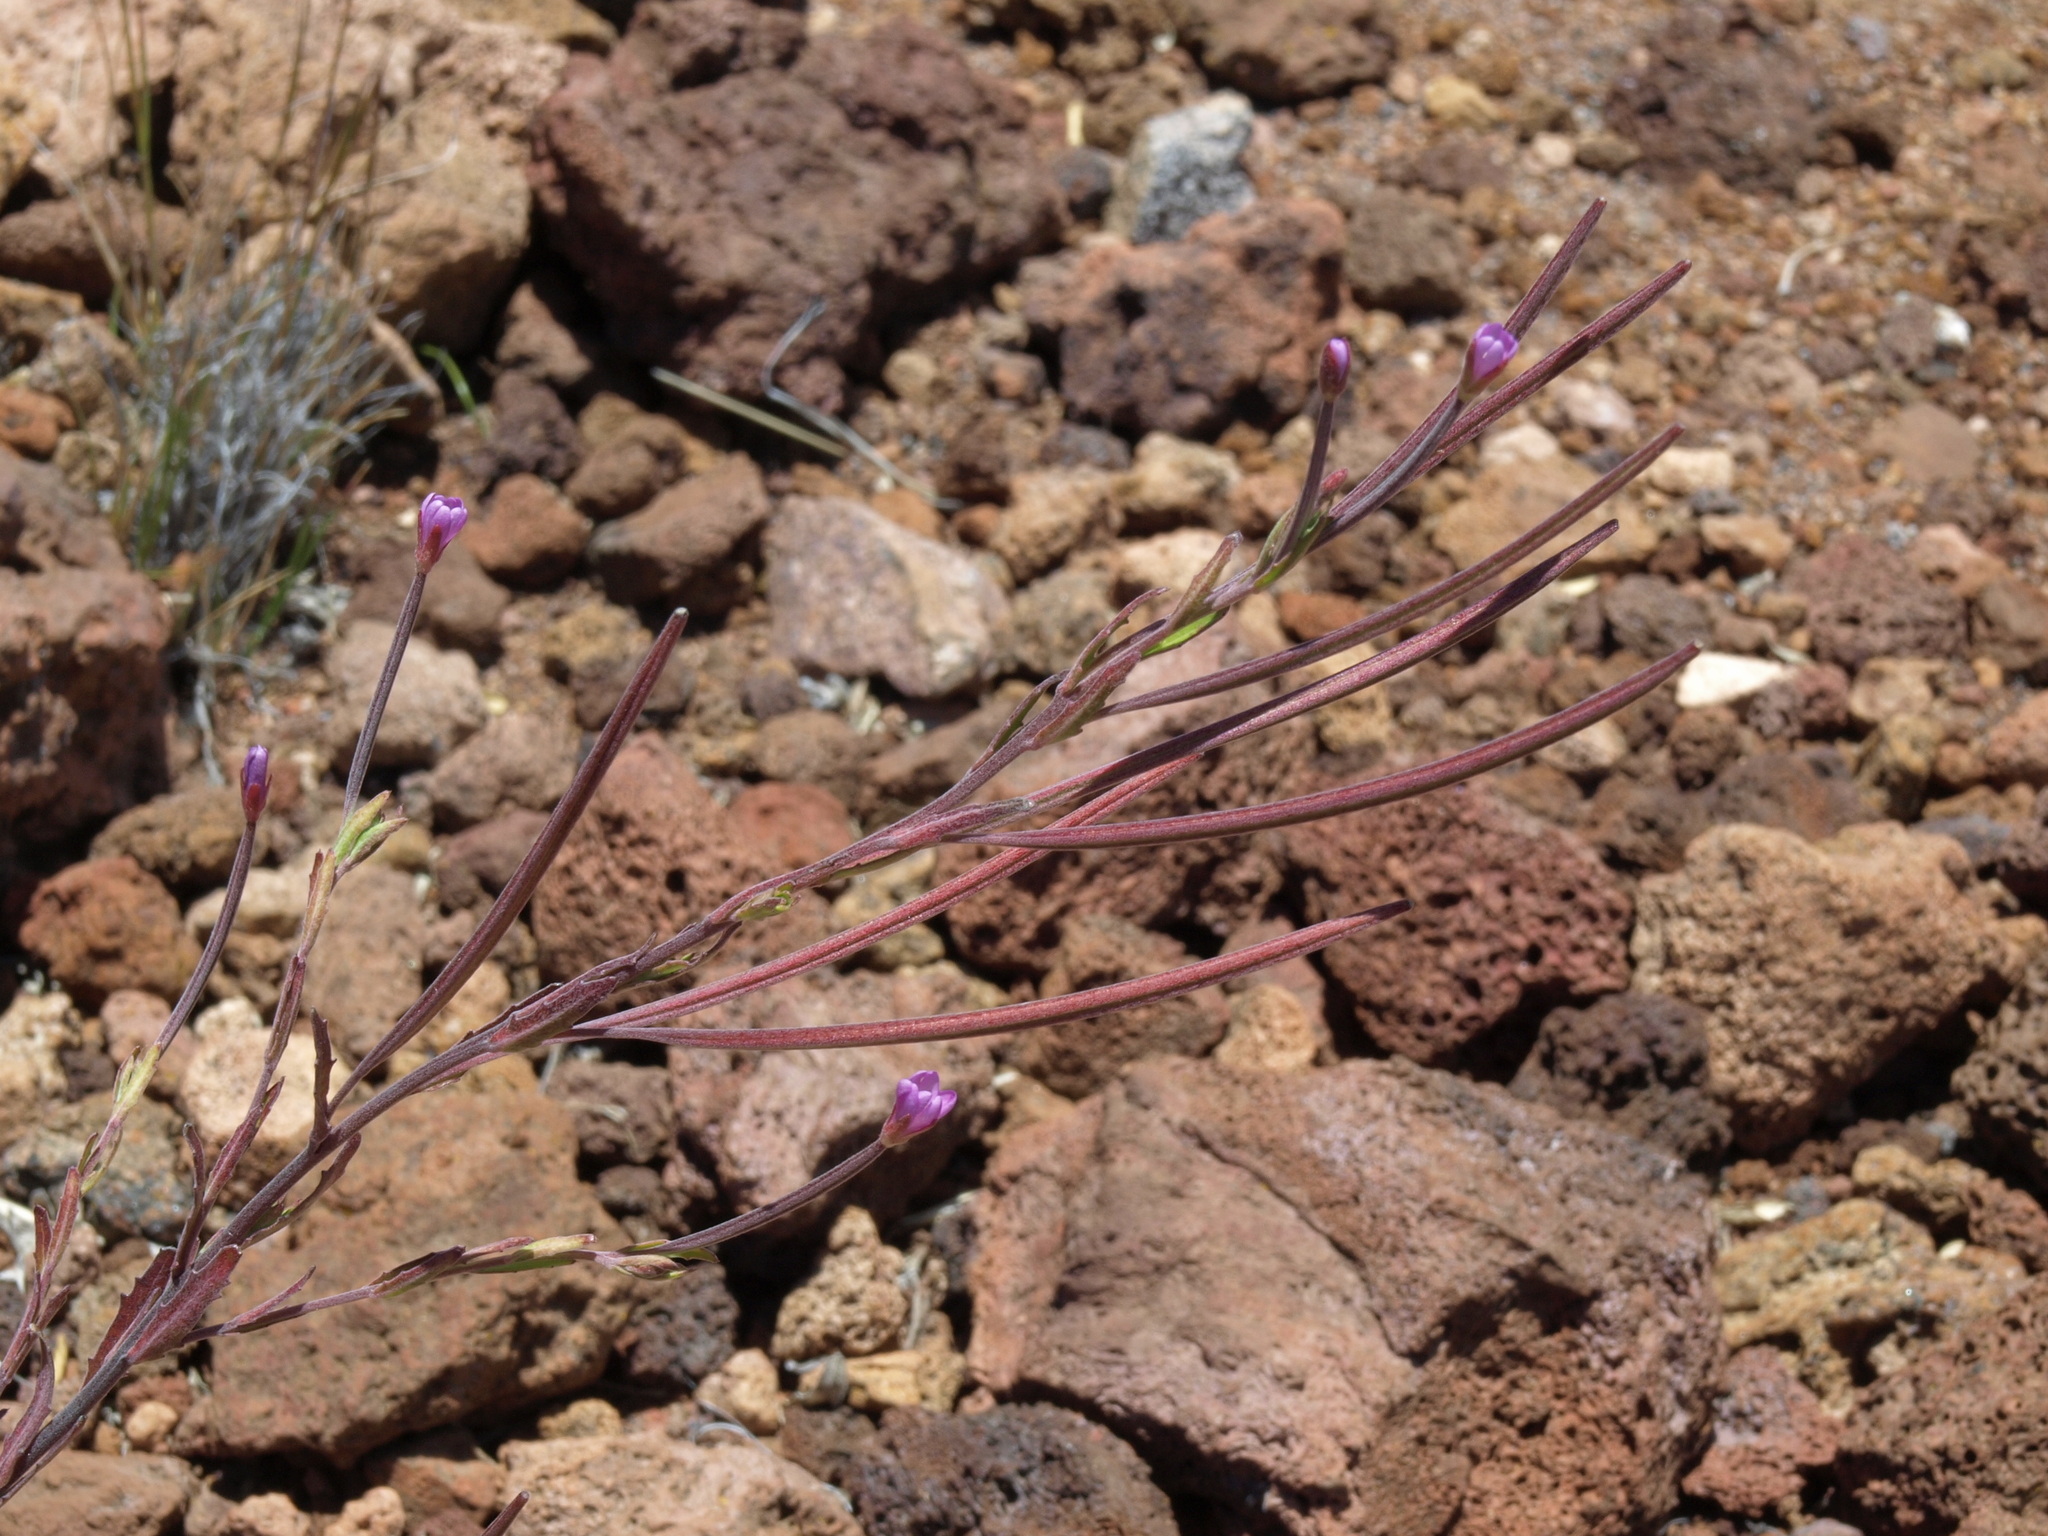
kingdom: Plantae
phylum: Tracheophyta
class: Magnoliopsida
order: Myrtales
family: Onagraceae
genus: Epilobium
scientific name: Epilobium billardierianum
